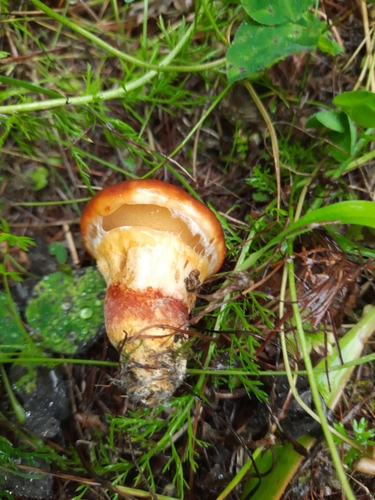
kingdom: Fungi
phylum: Basidiomycota
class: Agaricomycetes
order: Boletales
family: Suillaceae
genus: Suillus
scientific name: Suillus grevillei
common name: Larch bolete
